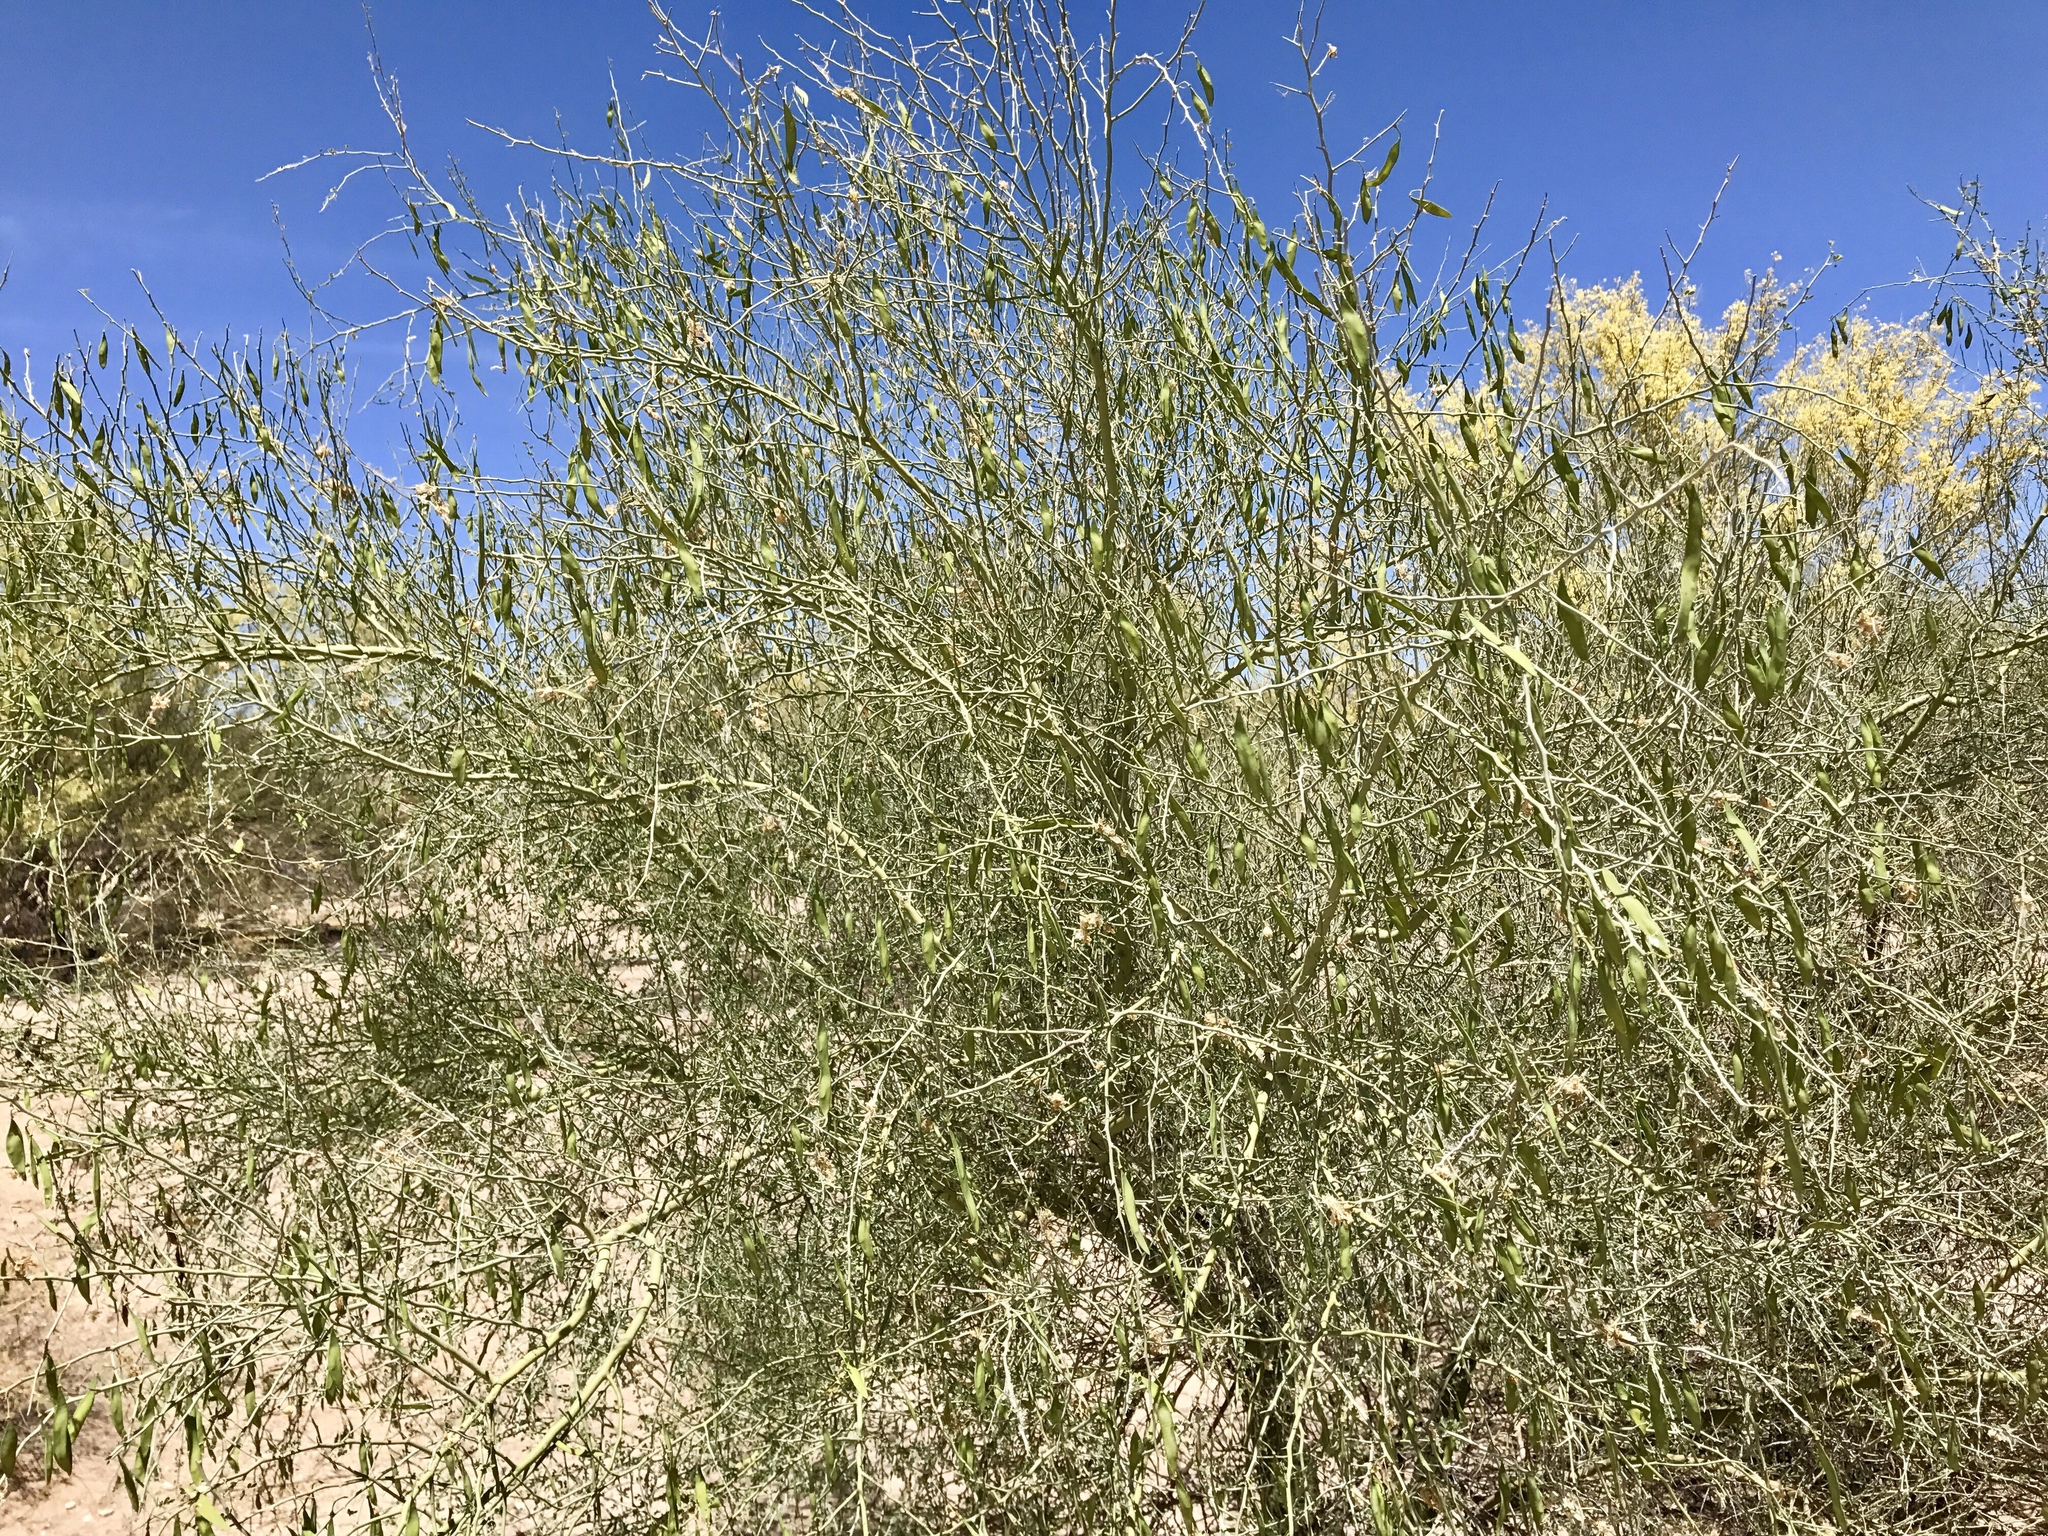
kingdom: Plantae
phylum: Tracheophyta
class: Magnoliopsida
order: Fabales
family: Fabaceae
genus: Parkinsonia
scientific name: Parkinsonia florida
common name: Blue paloverde
